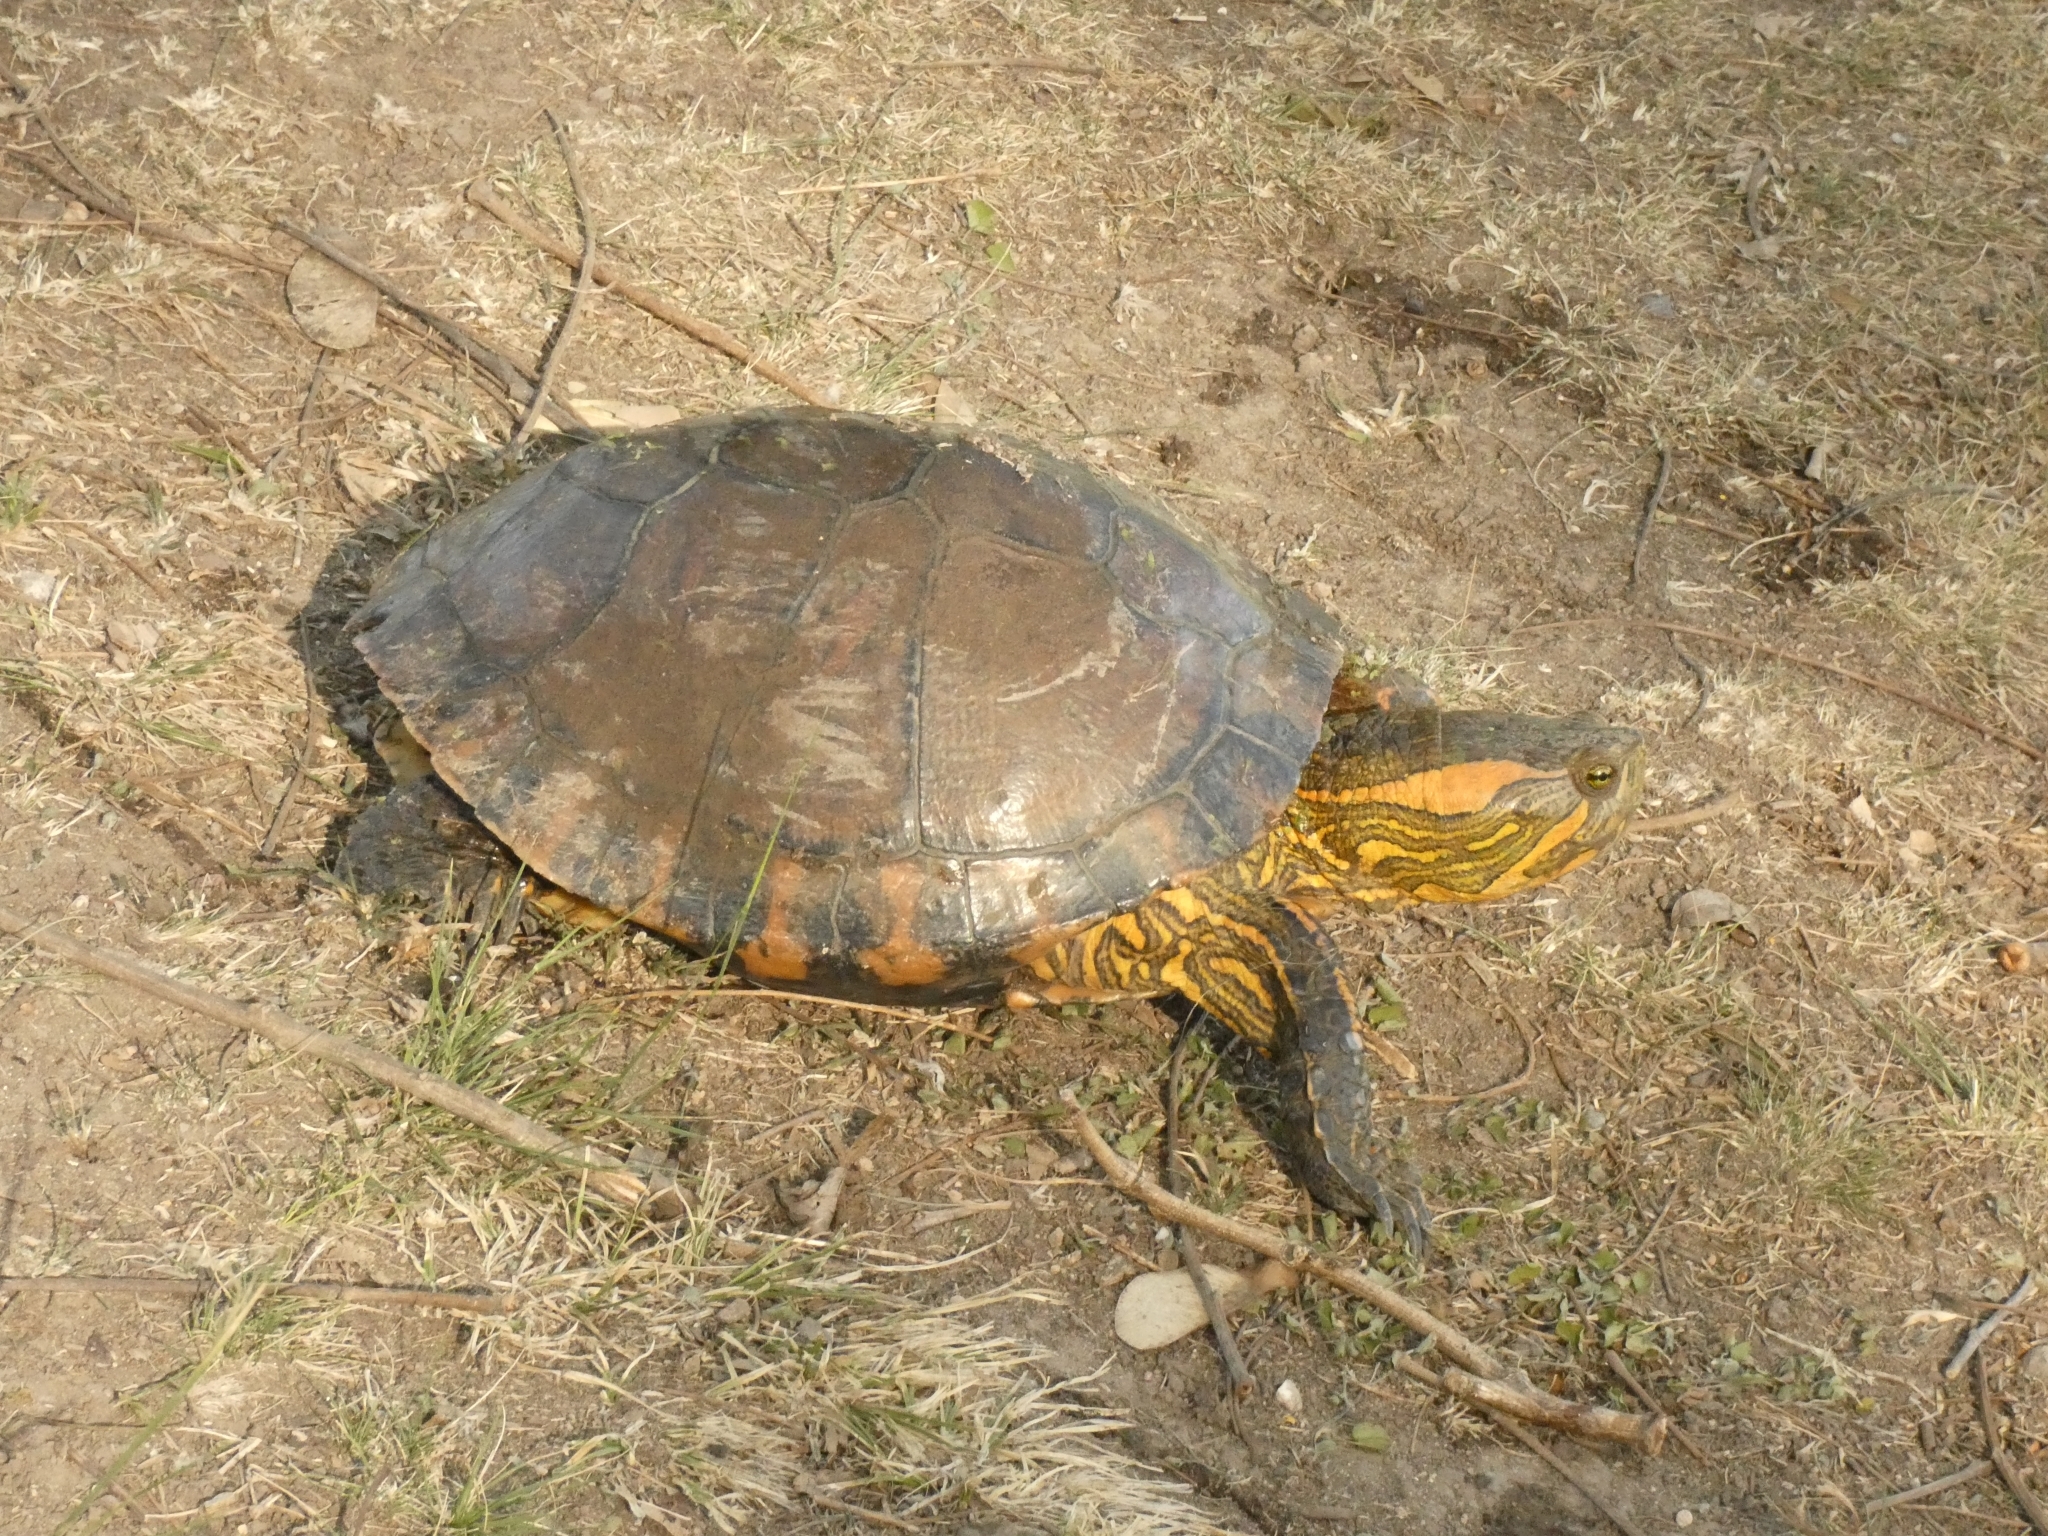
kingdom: Animalia
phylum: Chordata
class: Testudines
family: Emydidae
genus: Trachemys
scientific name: Trachemys dorbigni
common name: Black-bellied slider
